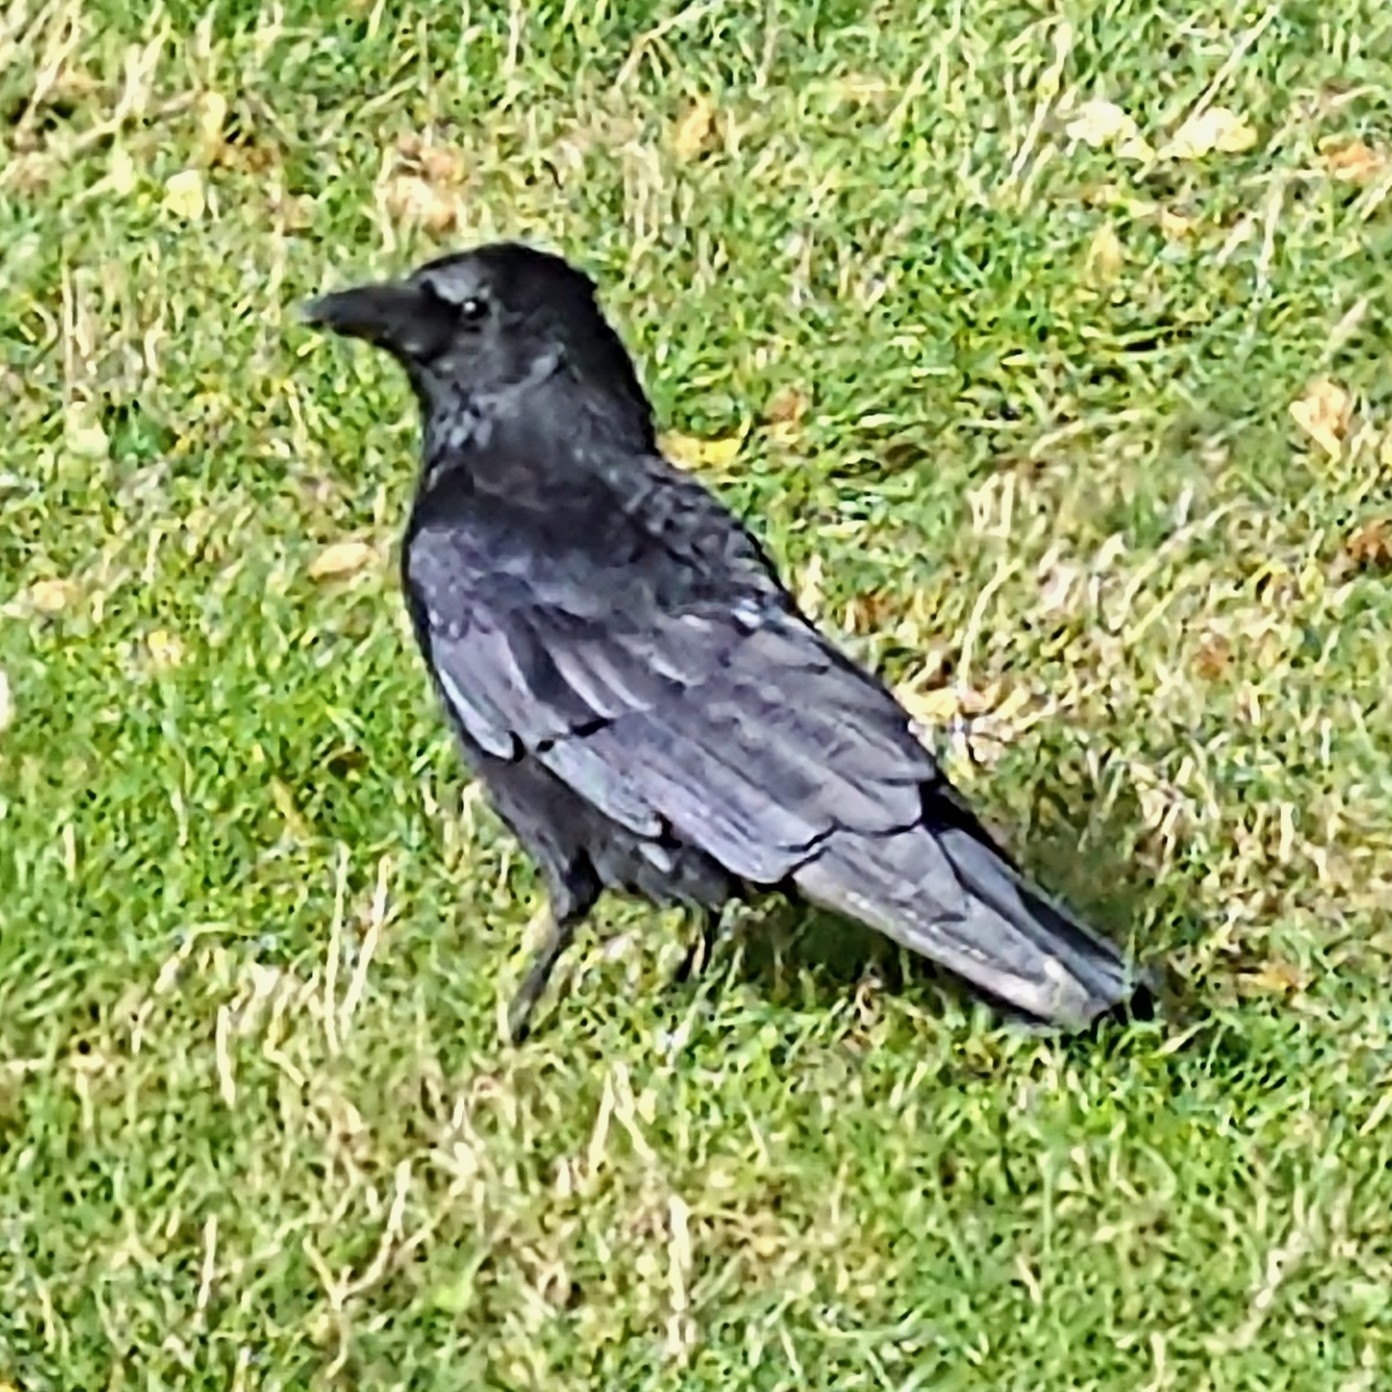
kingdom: Animalia
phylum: Chordata
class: Aves
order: Passeriformes
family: Corvidae
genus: Corvus
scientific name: Corvus corone
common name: Carrion crow
